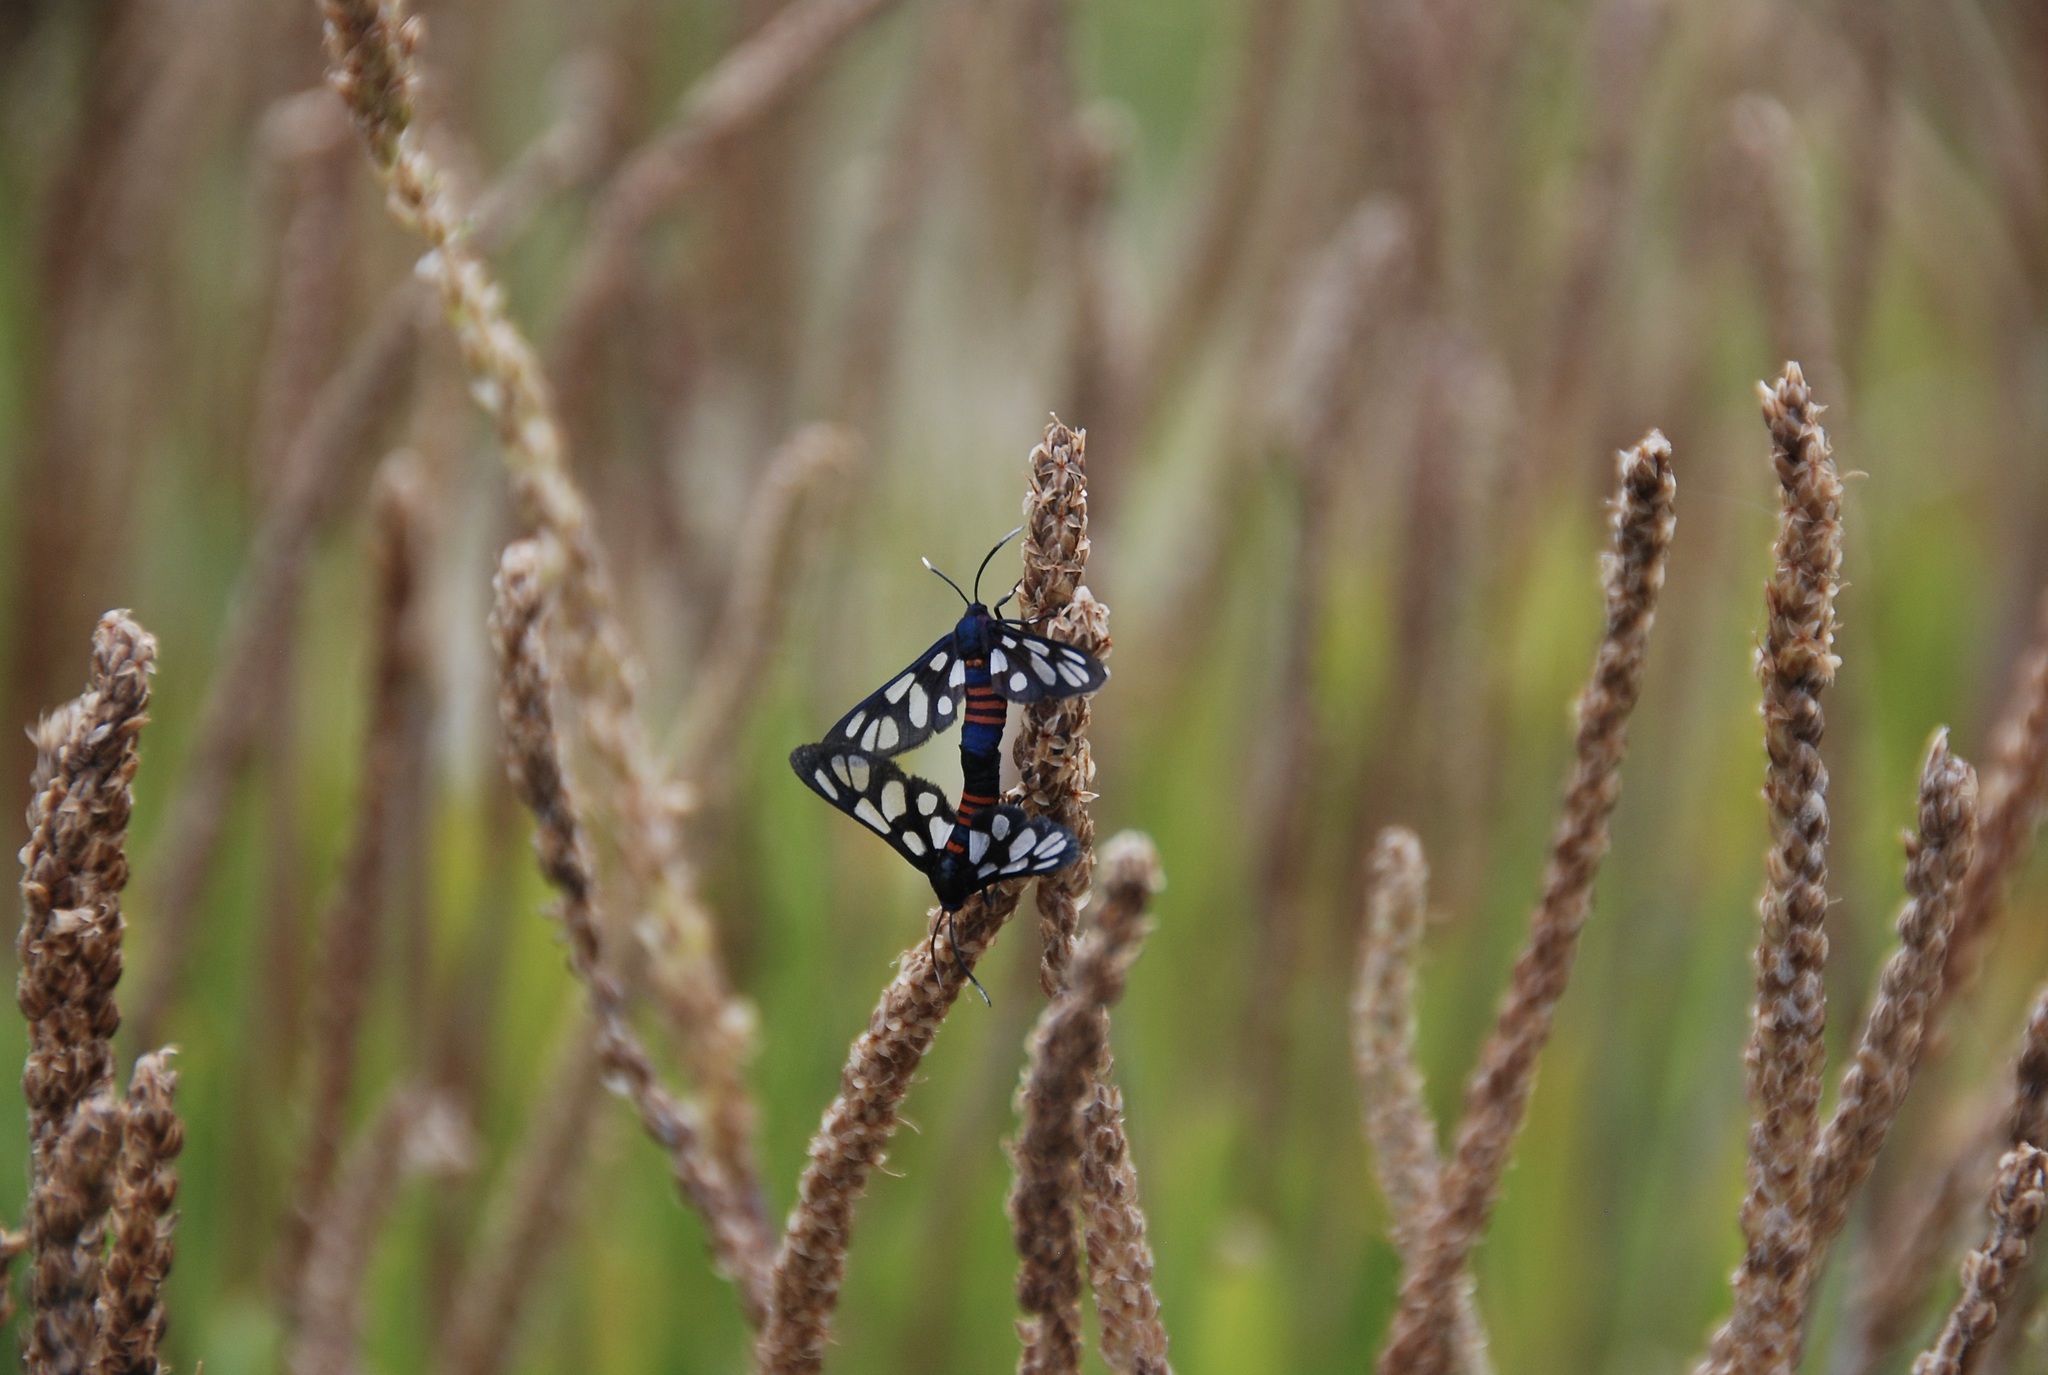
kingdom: Animalia
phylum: Arthropoda
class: Insecta
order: Lepidoptera
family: Erebidae
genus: Amata
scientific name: Amata cerbera
